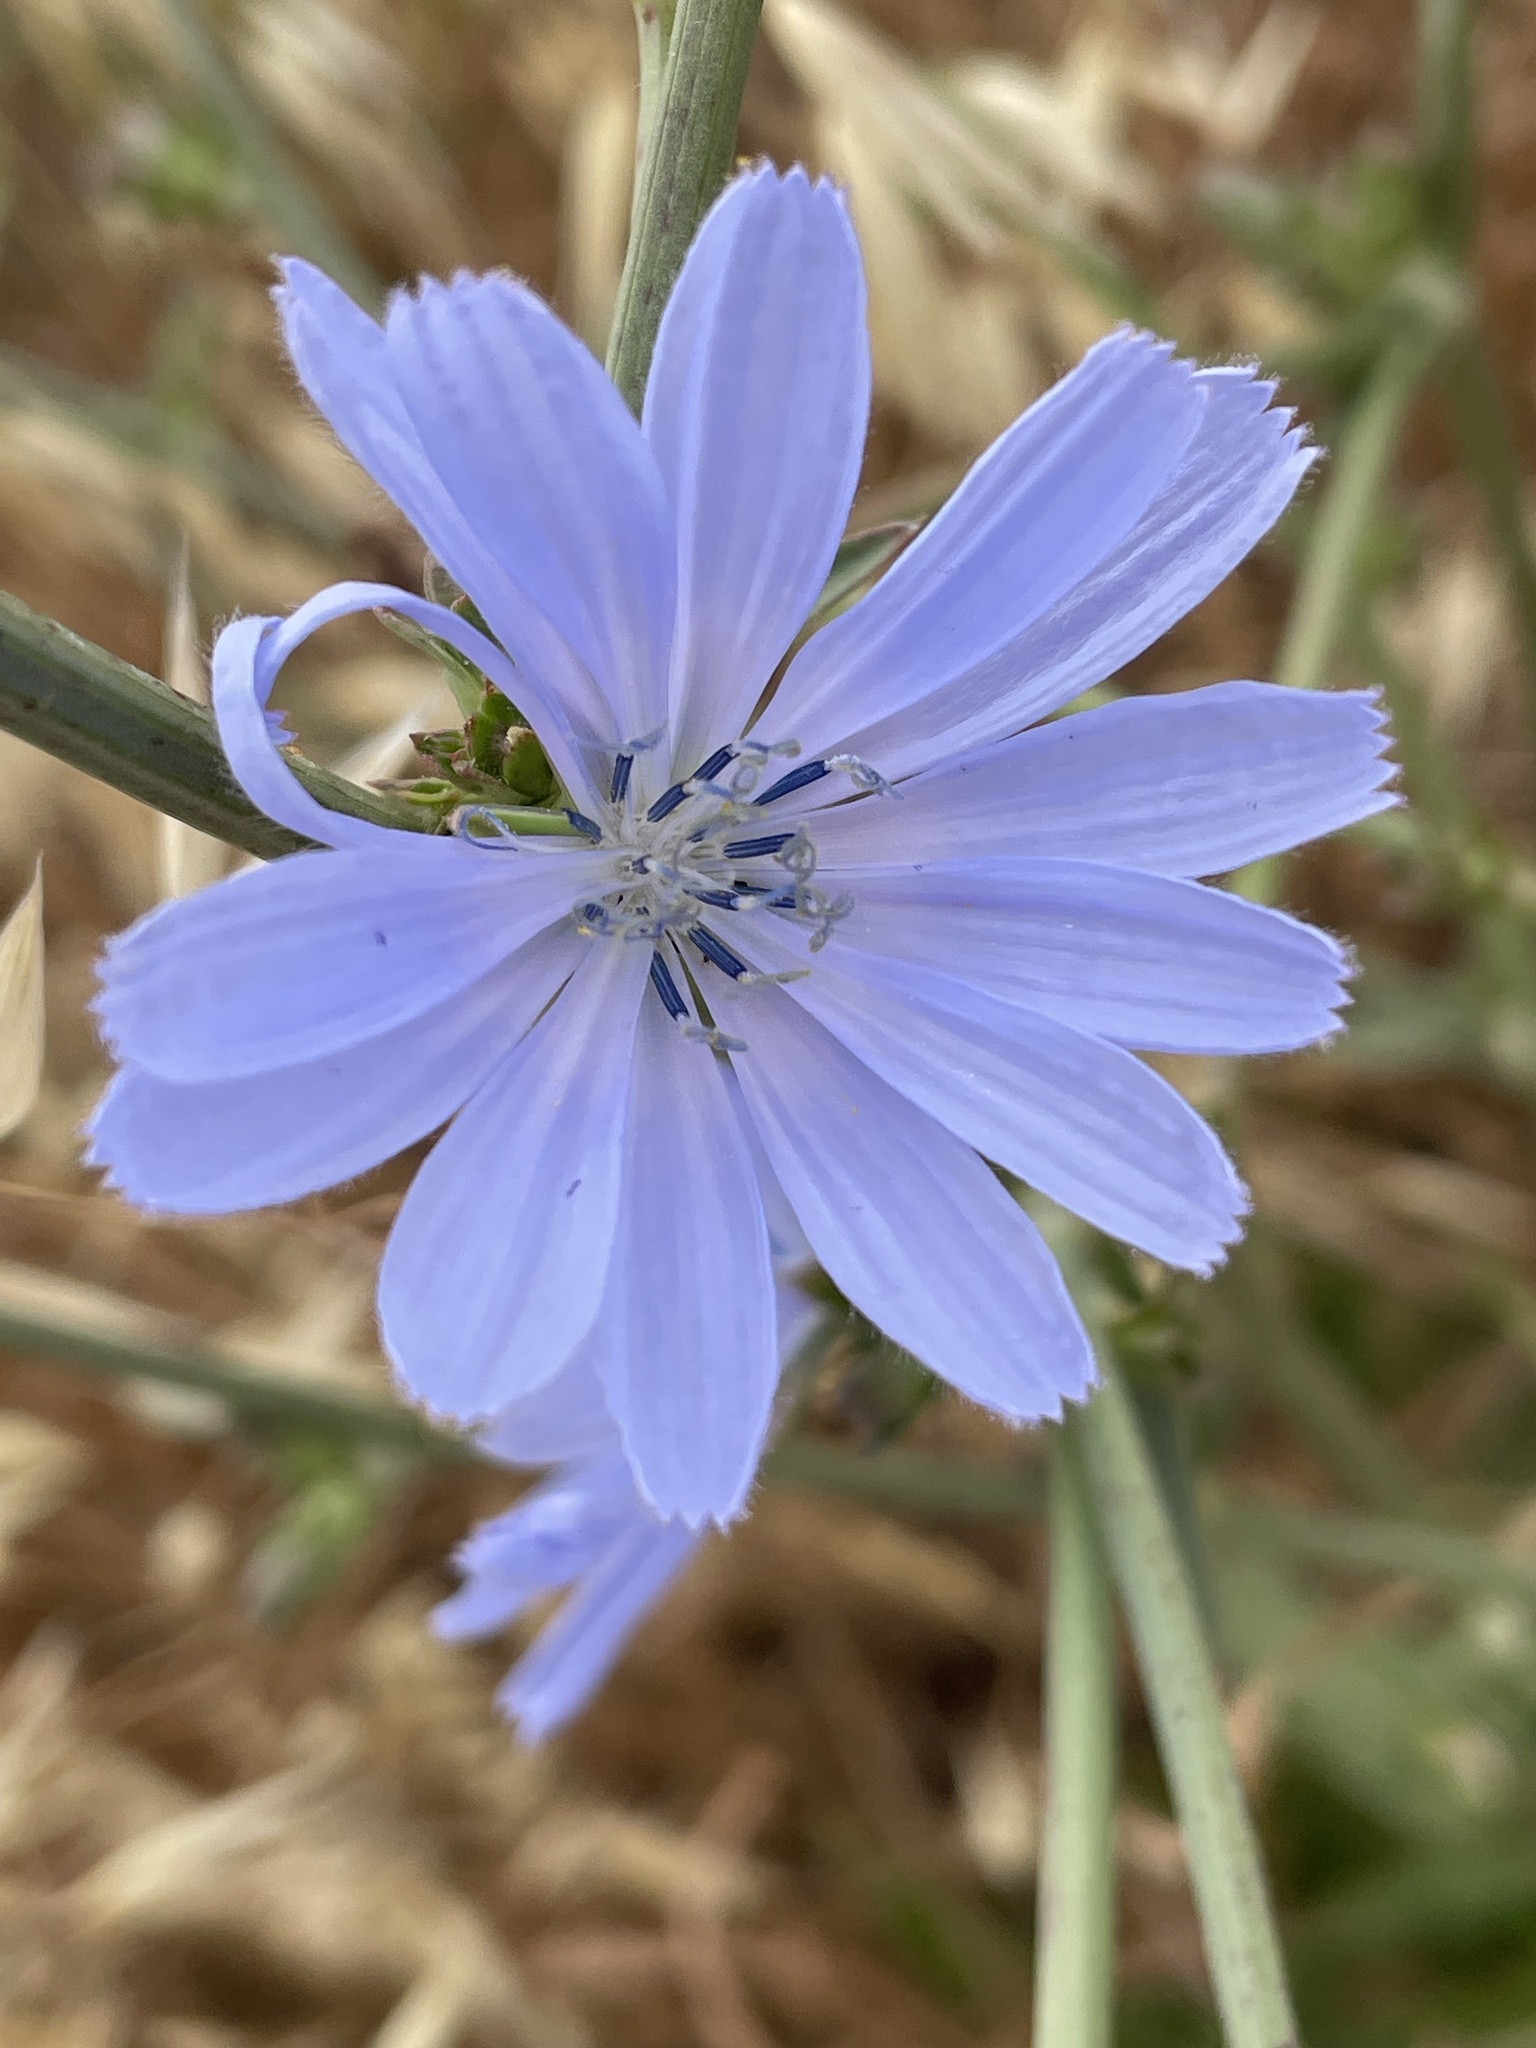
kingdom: Plantae
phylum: Tracheophyta
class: Magnoliopsida
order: Asterales
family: Asteraceae
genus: Cichorium
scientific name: Cichorium intybus
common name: Chicory
